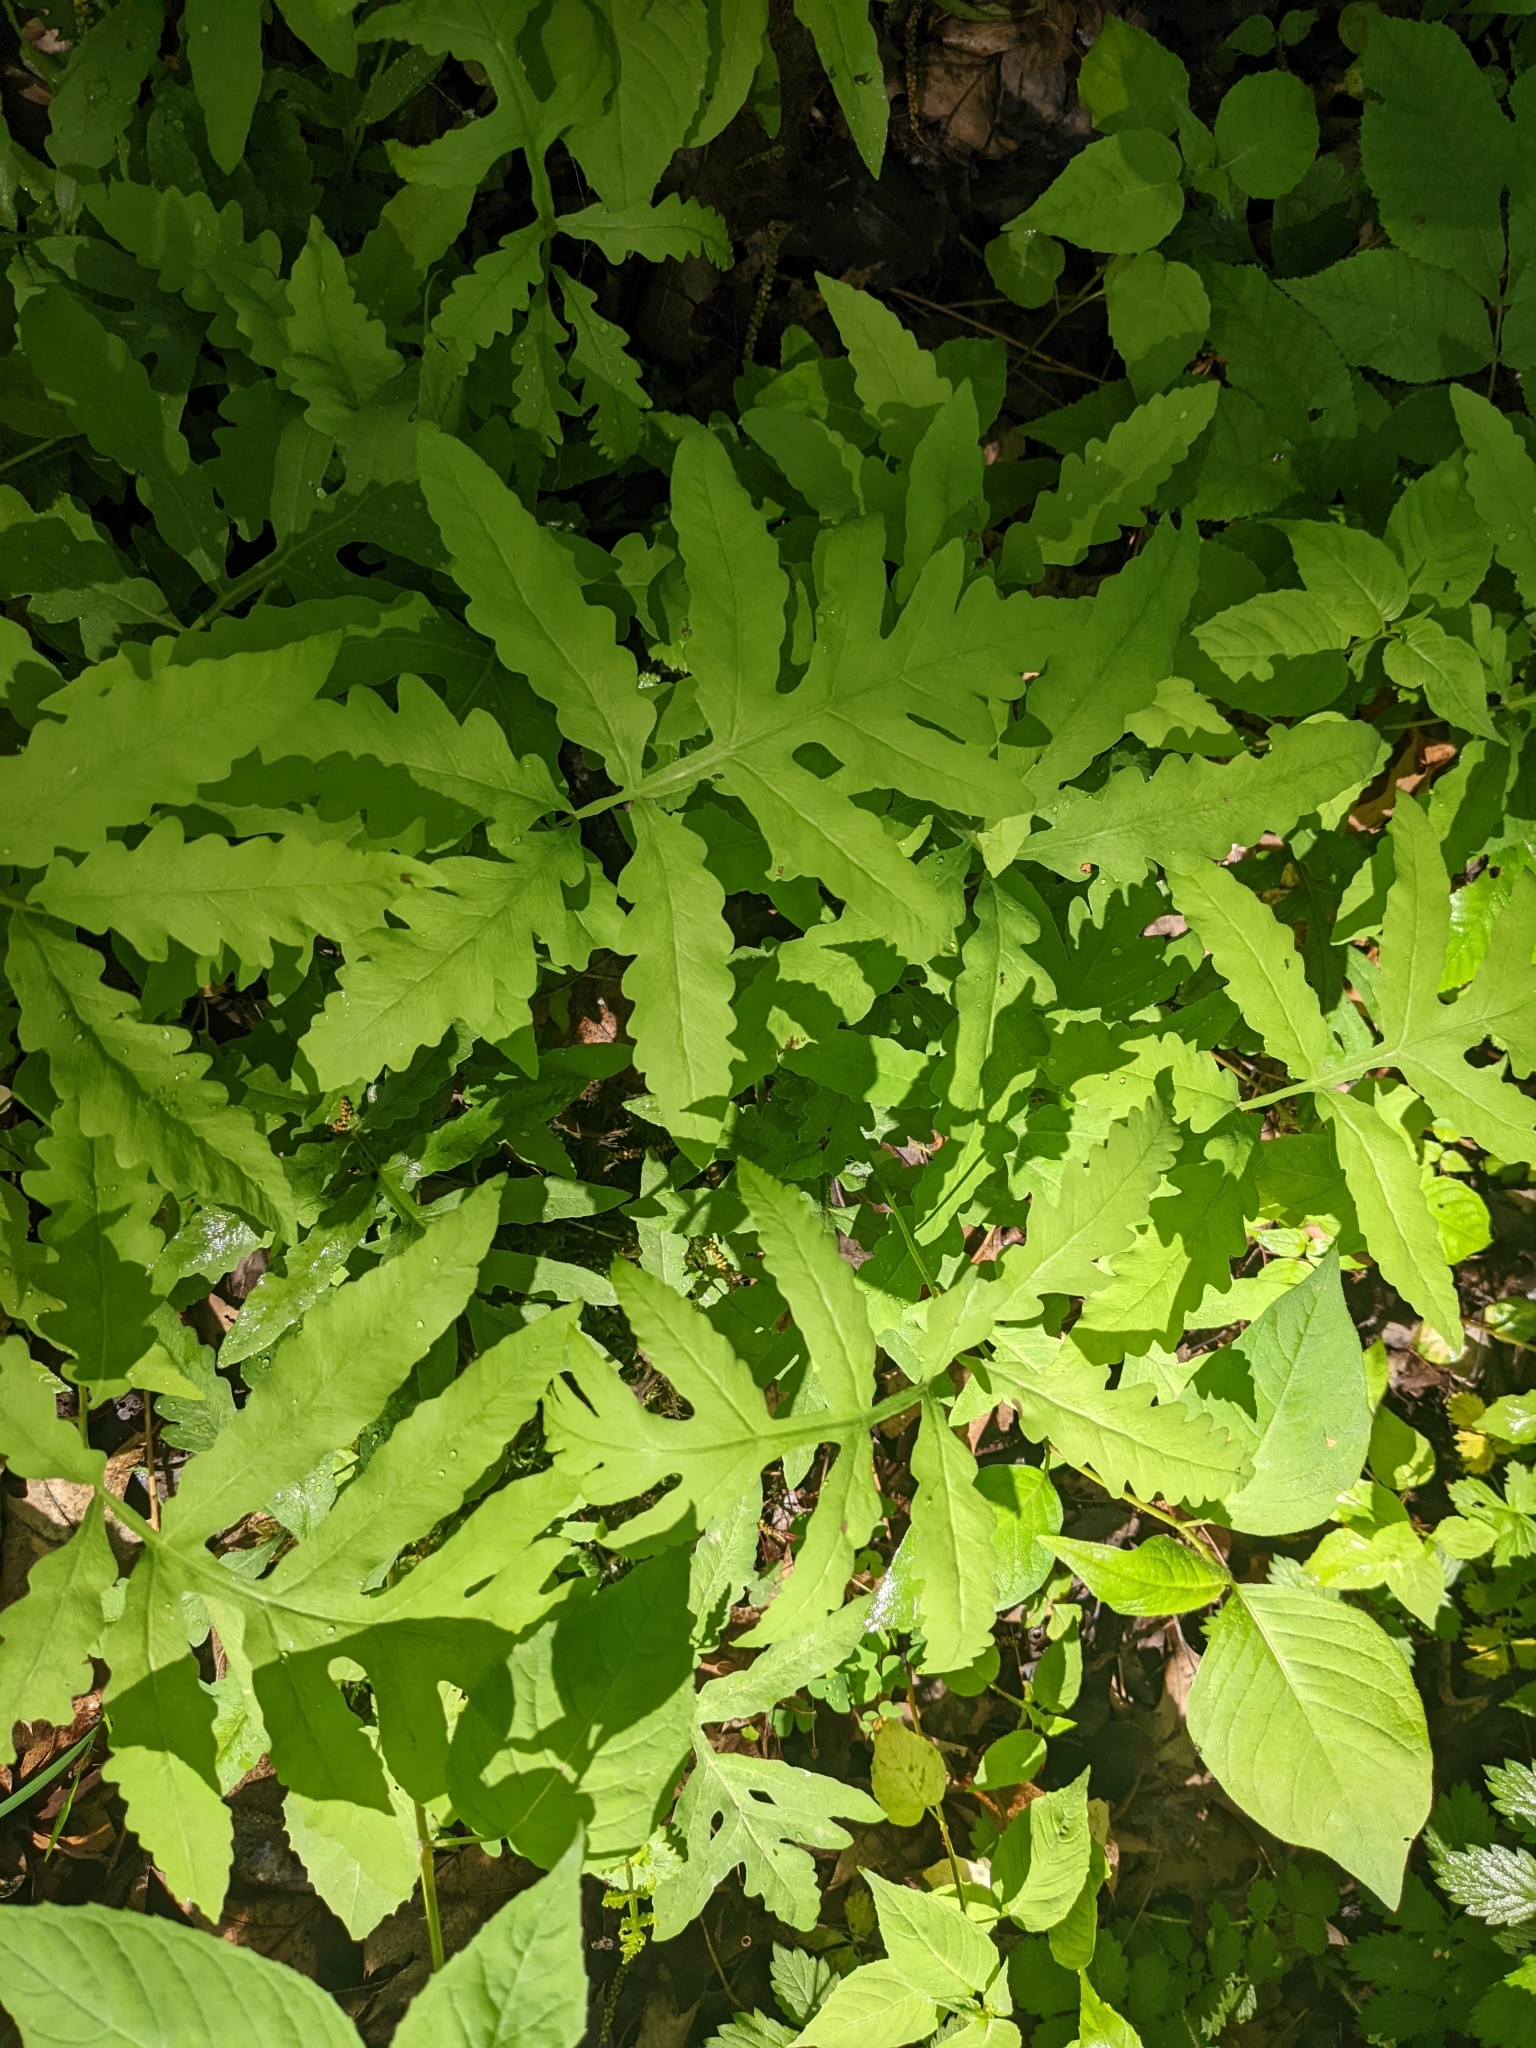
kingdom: Plantae
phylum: Tracheophyta
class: Polypodiopsida
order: Polypodiales
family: Onocleaceae
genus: Onoclea
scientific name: Onoclea sensibilis
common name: Sensitive fern
